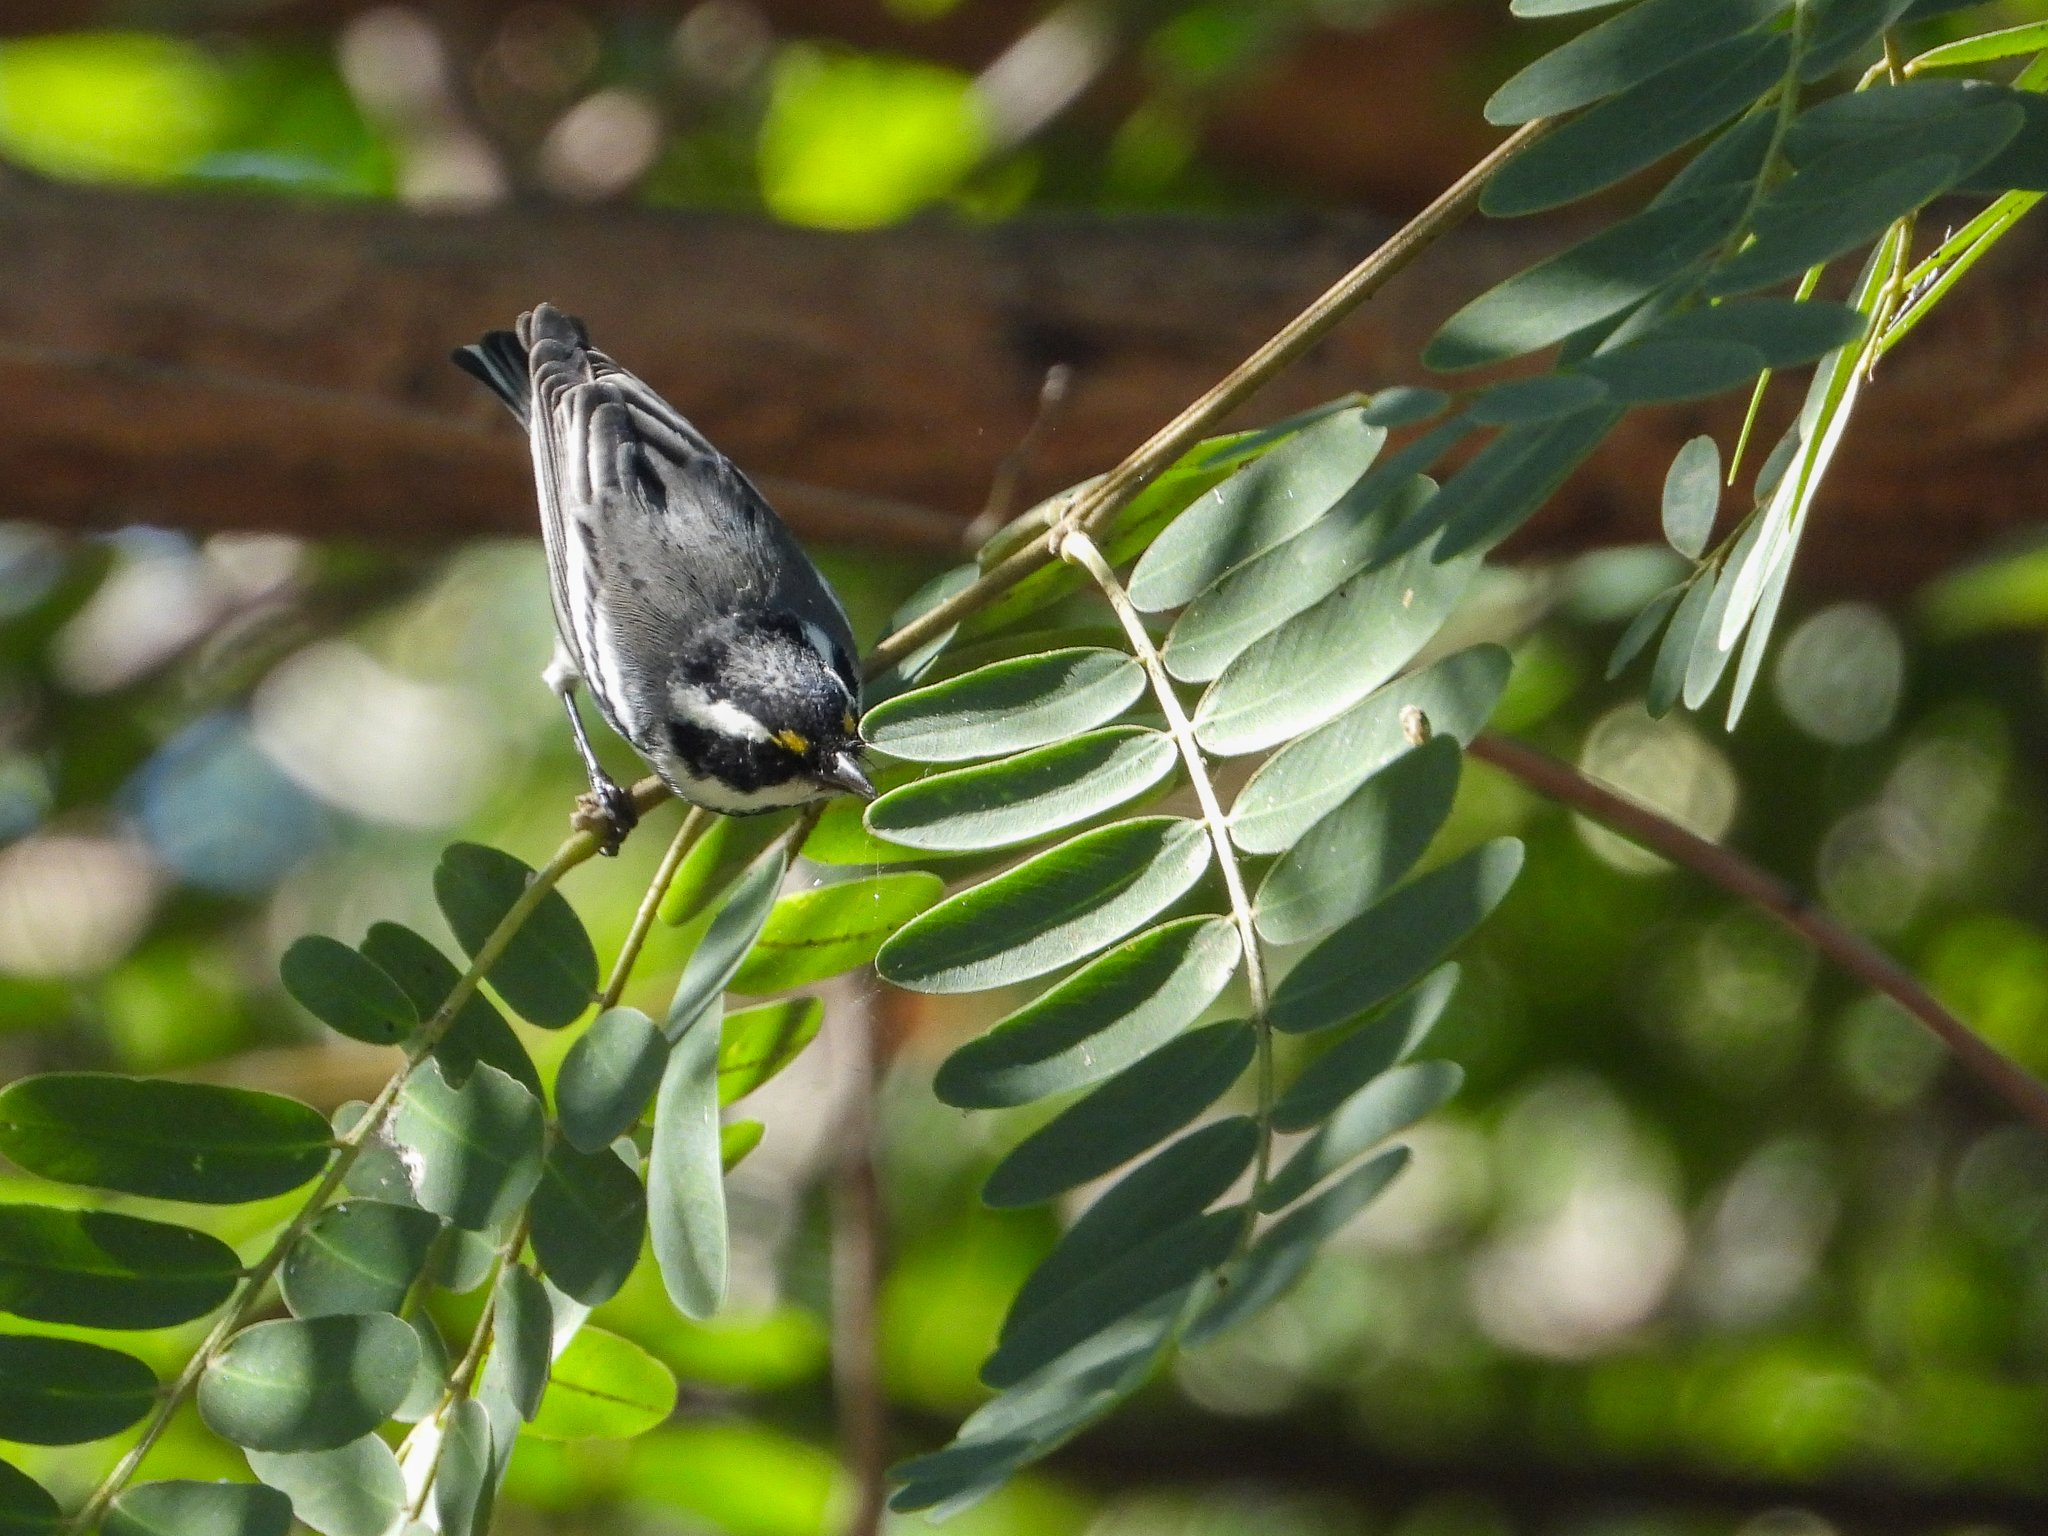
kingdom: Animalia
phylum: Chordata
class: Aves
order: Passeriformes
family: Parulidae
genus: Setophaga
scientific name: Setophaga nigrescens
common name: Black-throated gray warbler
